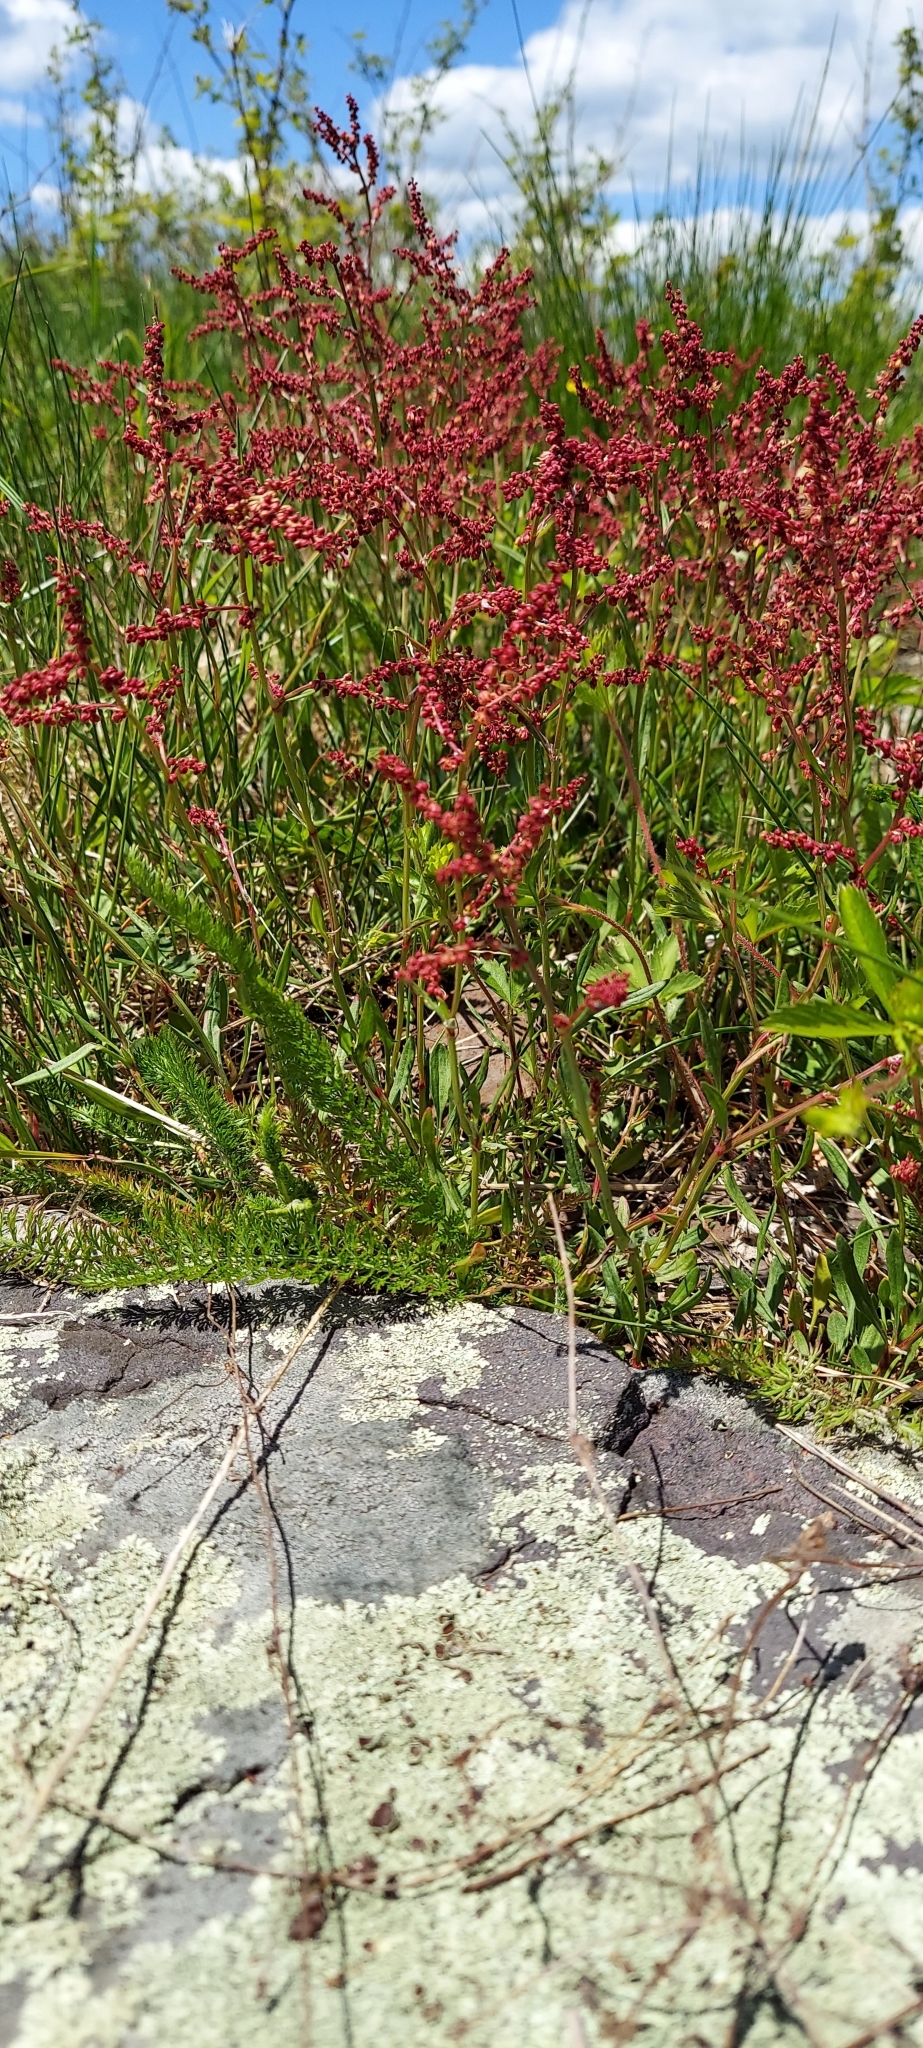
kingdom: Plantae
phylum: Tracheophyta
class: Magnoliopsida
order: Caryophyllales
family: Polygonaceae
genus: Rumex
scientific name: Rumex acetosella
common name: Common sheep sorrel
